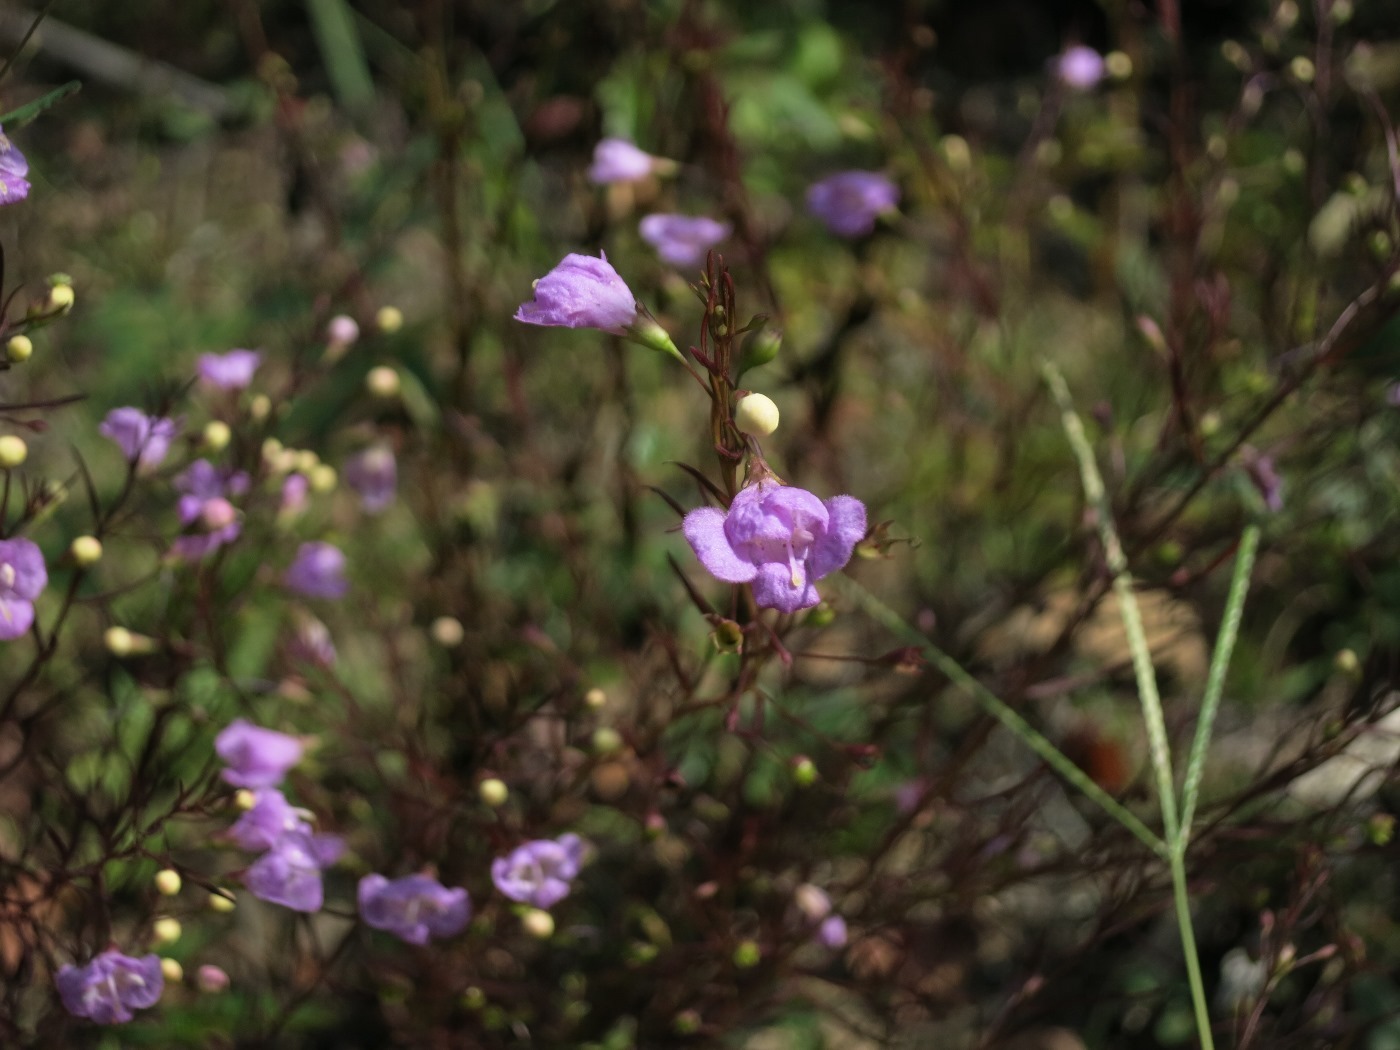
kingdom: Plantae
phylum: Tracheophyta
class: Magnoliopsida
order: Lamiales
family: Orobanchaceae
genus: Agalinis
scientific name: Agalinis tenuifolia
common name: Slender agalinis
